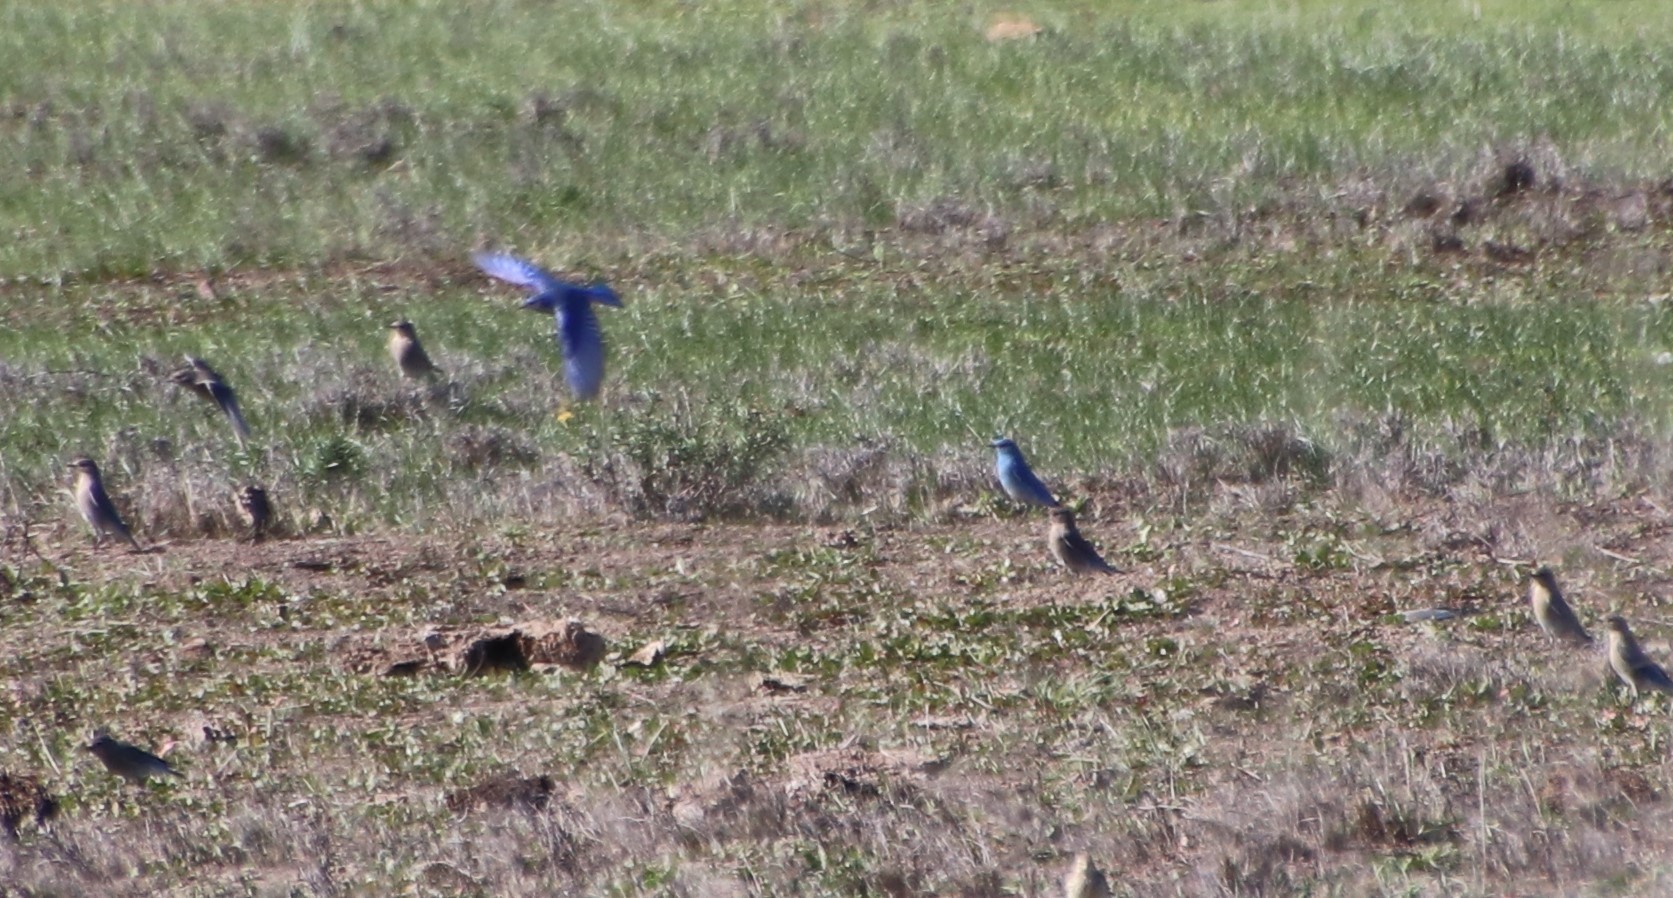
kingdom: Animalia
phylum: Chordata
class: Aves
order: Passeriformes
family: Turdidae
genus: Sialia
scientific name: Sialia currucoides
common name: Mountain bluebird
